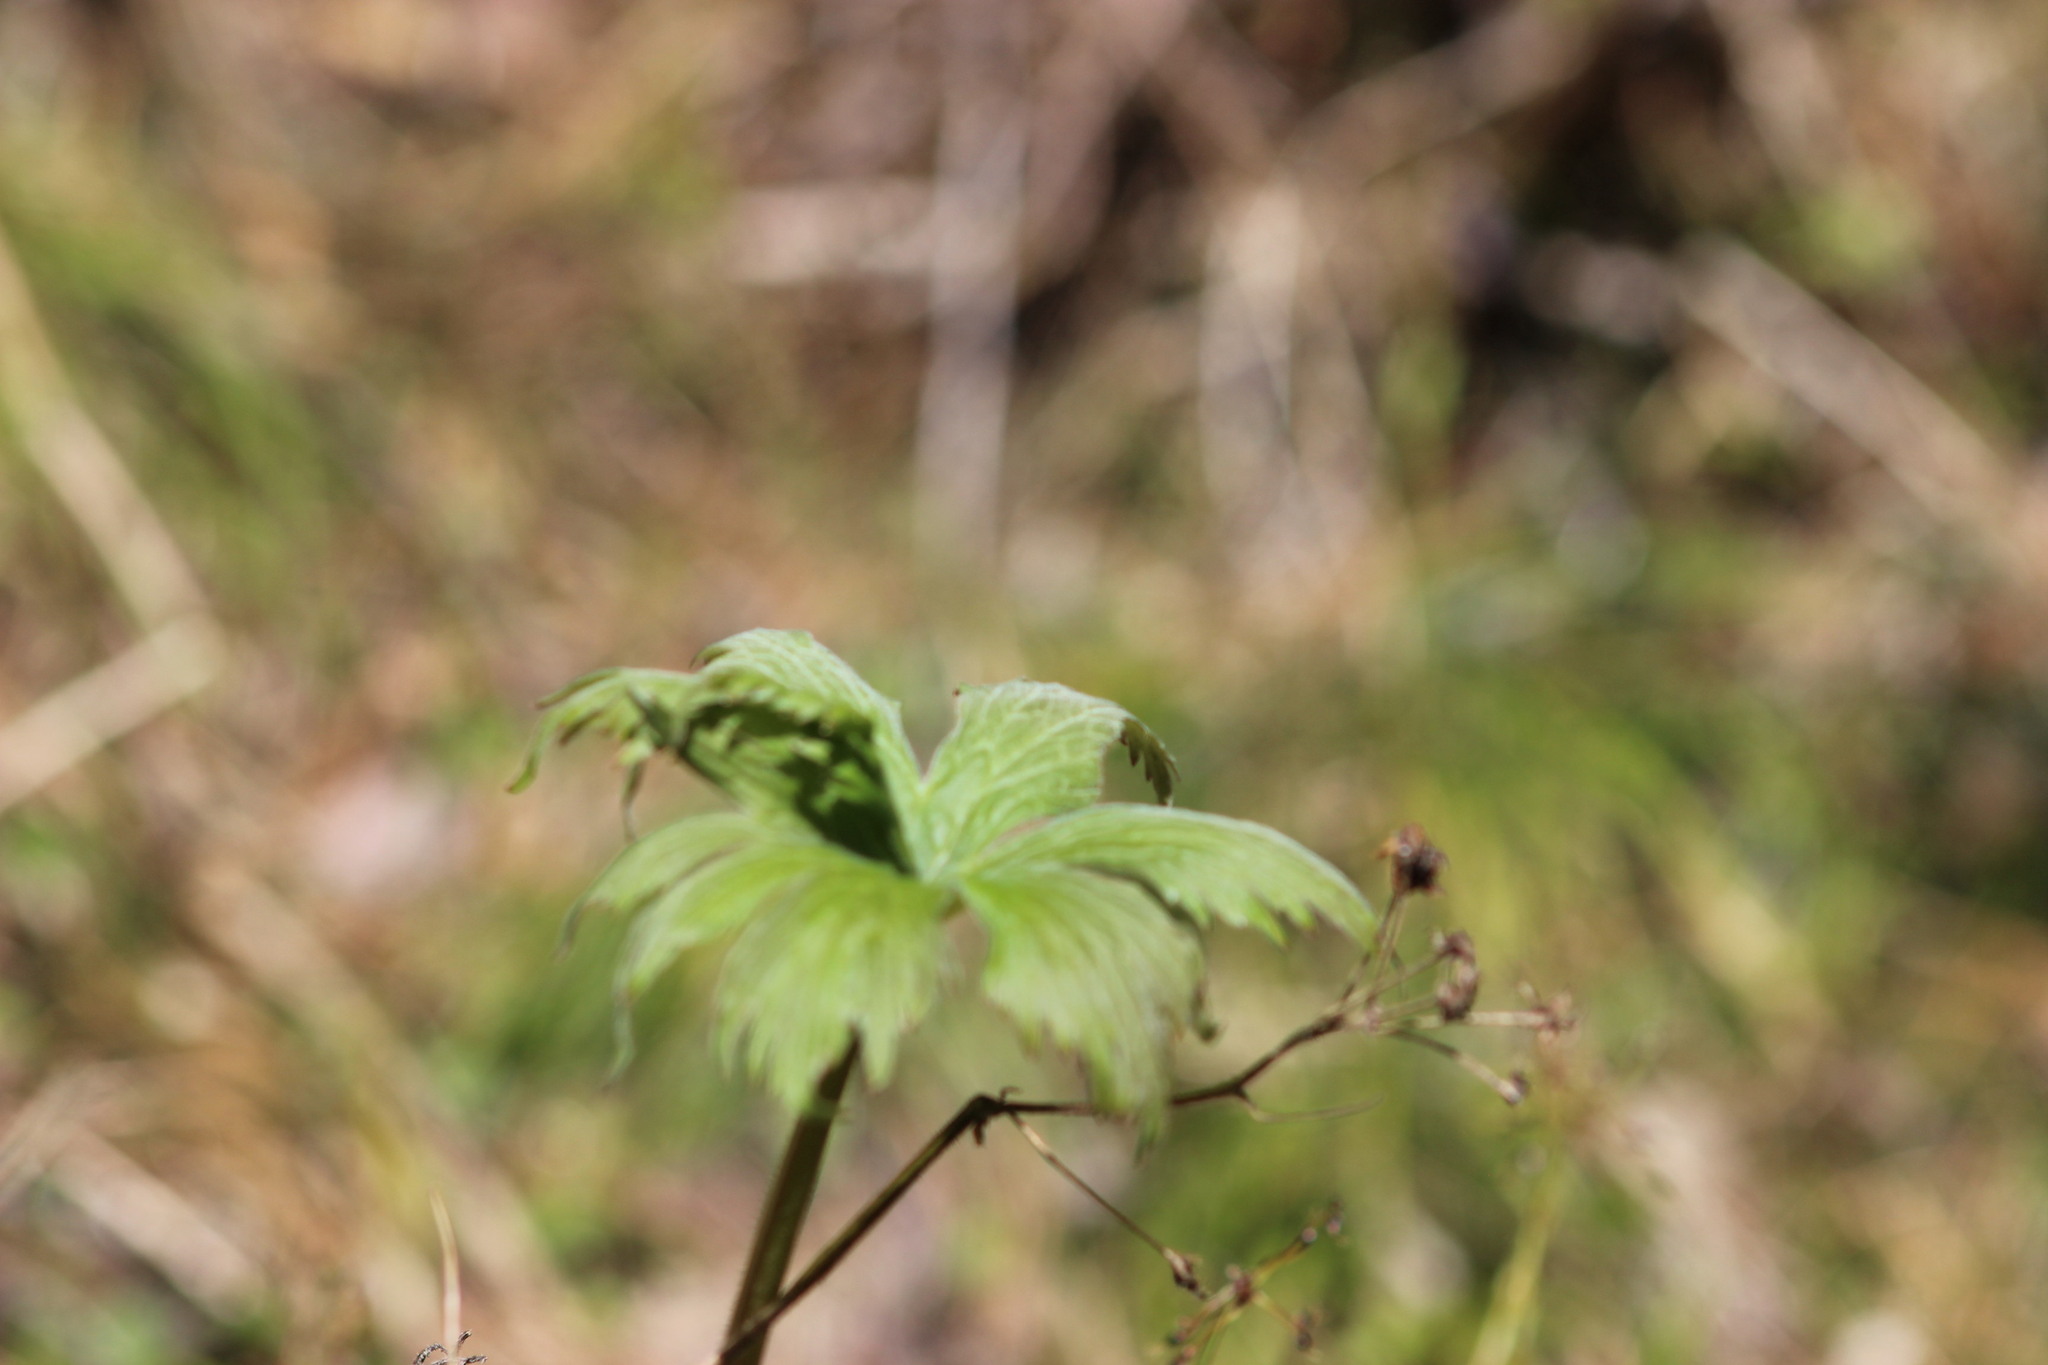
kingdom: Plantae
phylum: Tracheophyta
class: Magnoliopsida
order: Ranunculales
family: Ranunculaceae
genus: Aconitum
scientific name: Aconitum septentrionale
